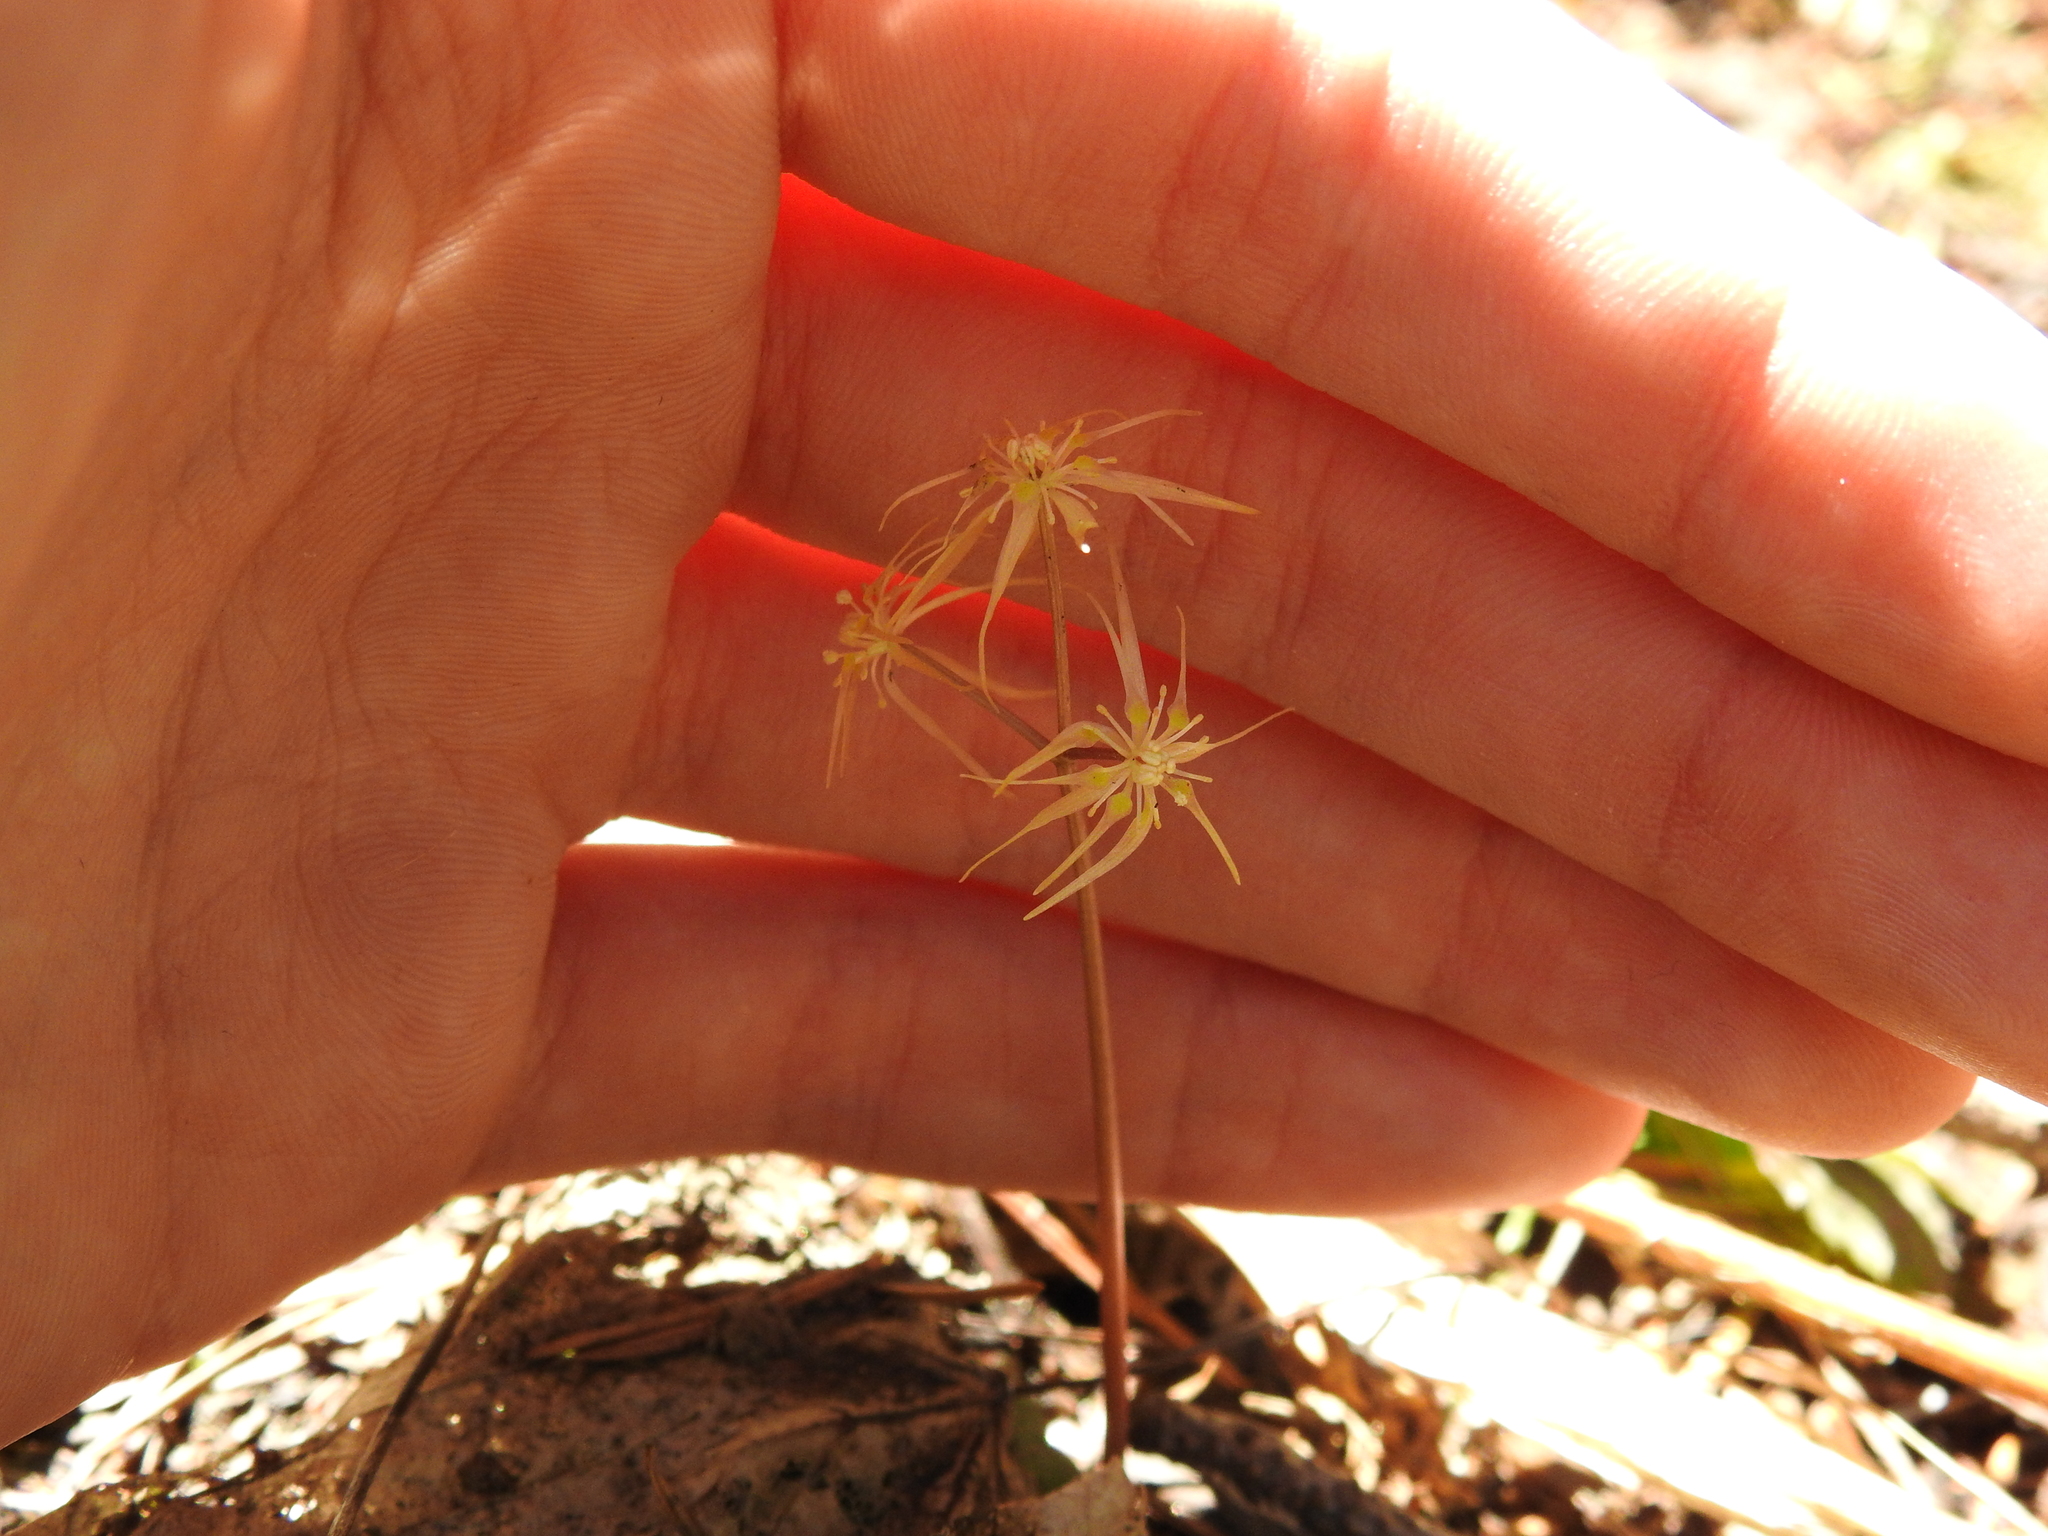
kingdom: Plantae
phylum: Tracheophyta
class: Magnoliopsida
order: Ranunculales
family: Ranunculaceae
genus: Coptis
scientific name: Coptis occidentalis
